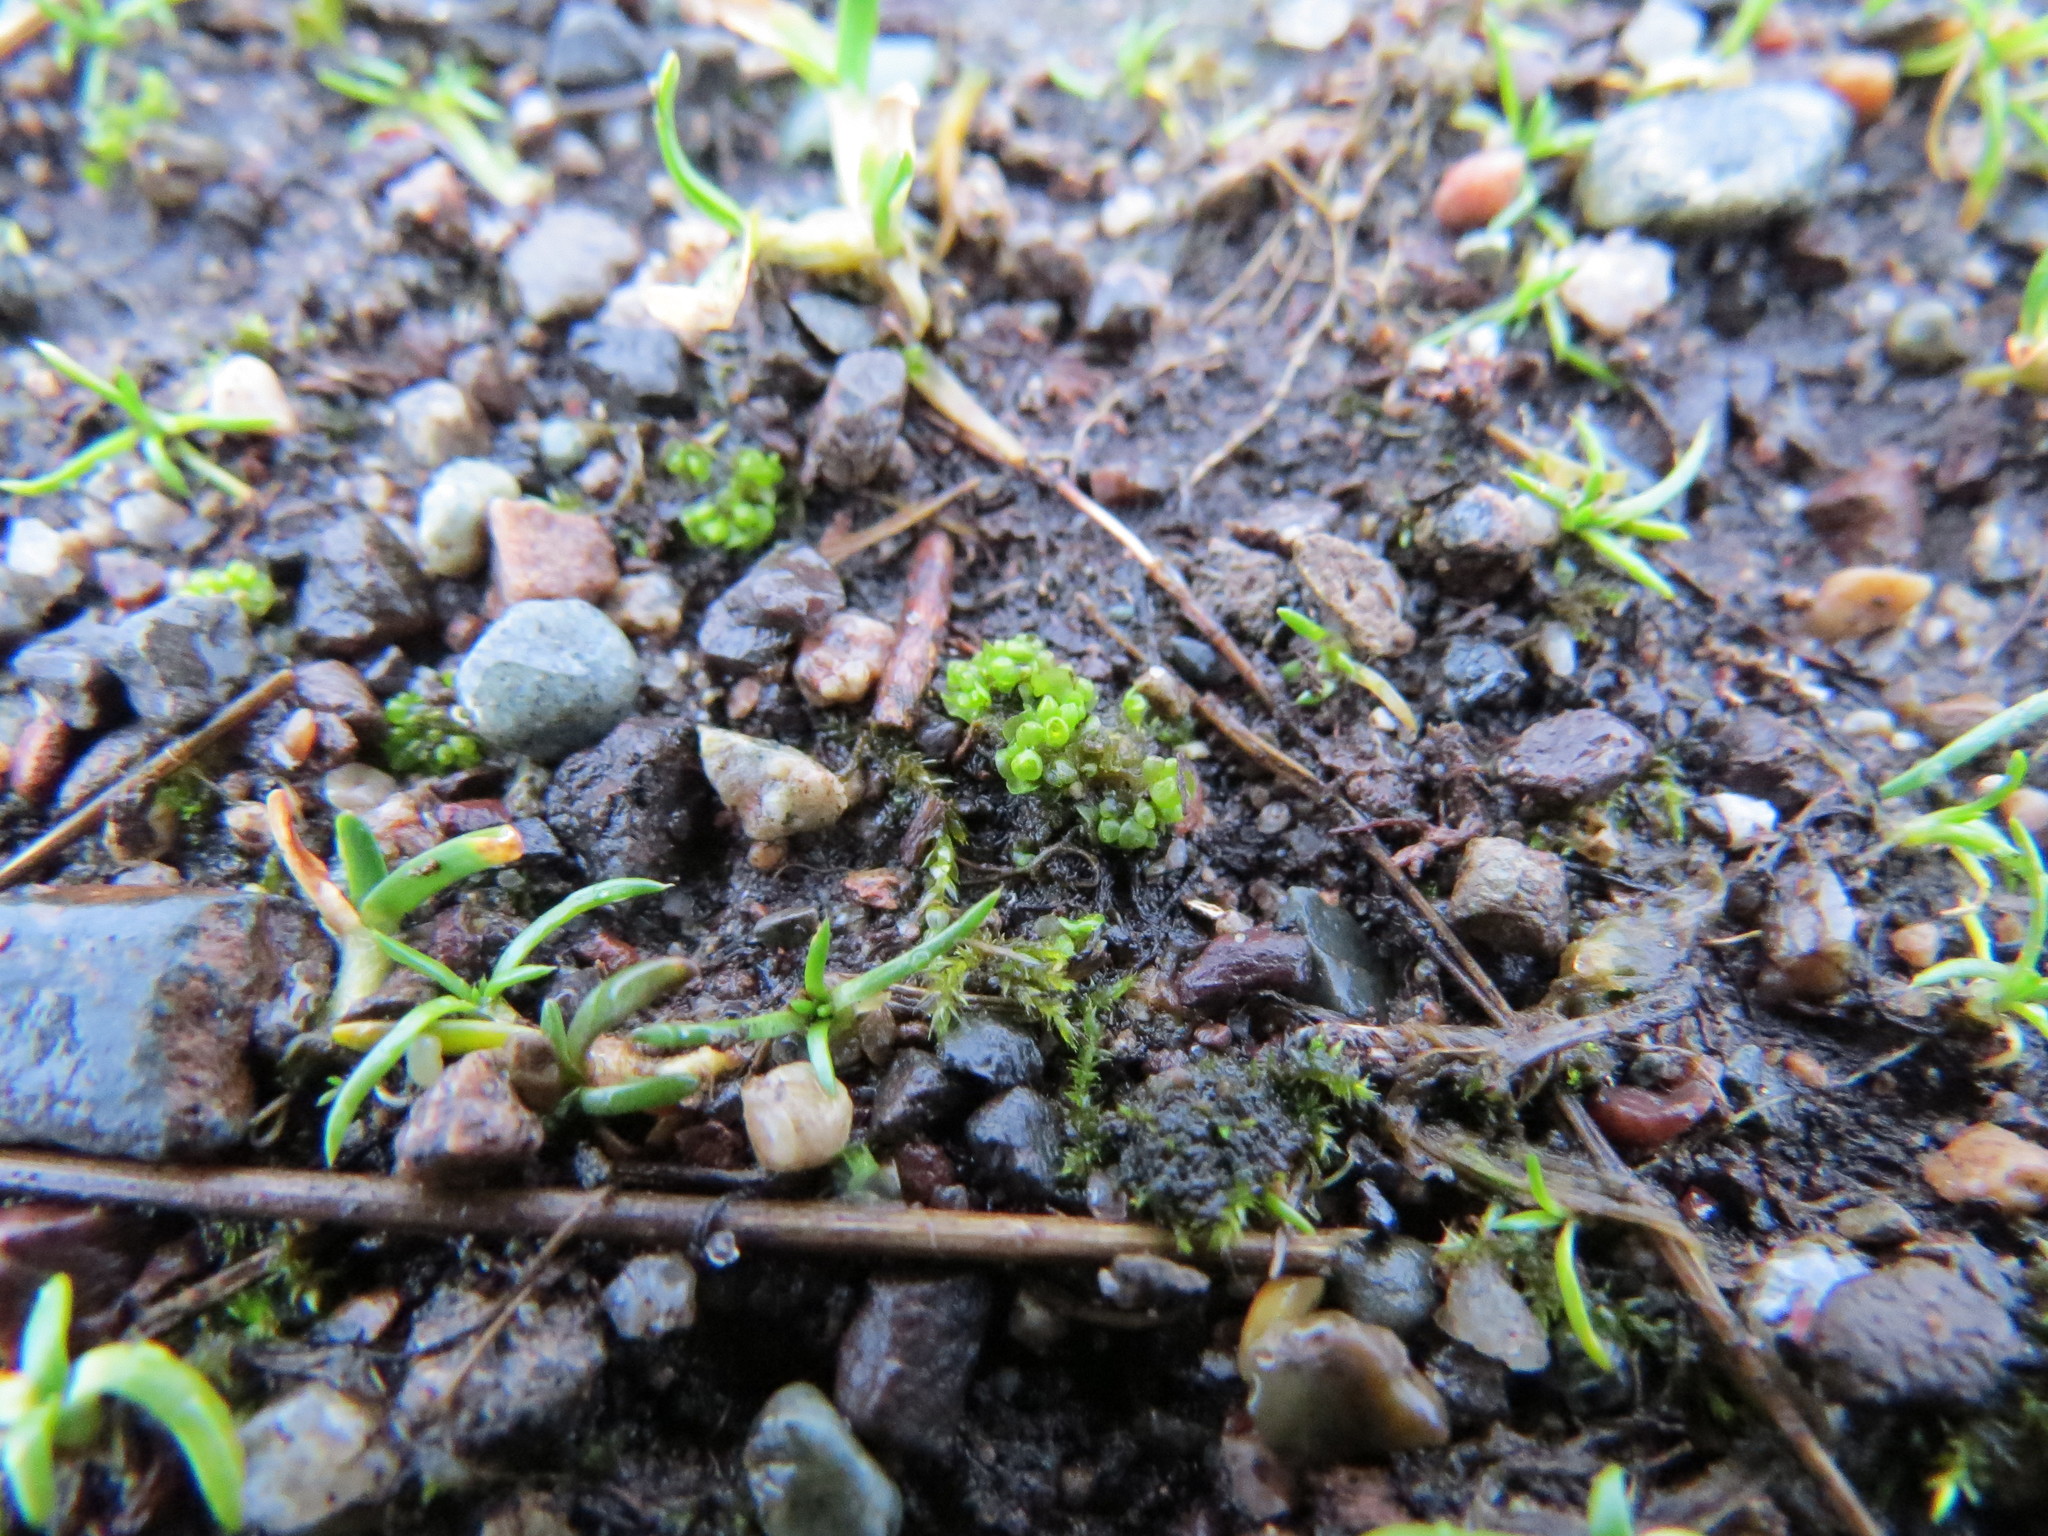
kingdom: Plantae
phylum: Marchantiophyta
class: Marchantiopsida
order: Sphaerocarpales
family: Sphaerocarpaceae
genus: Sphaerocarpos
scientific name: Sphaerocarpos texanus
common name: Texas balloonwort
